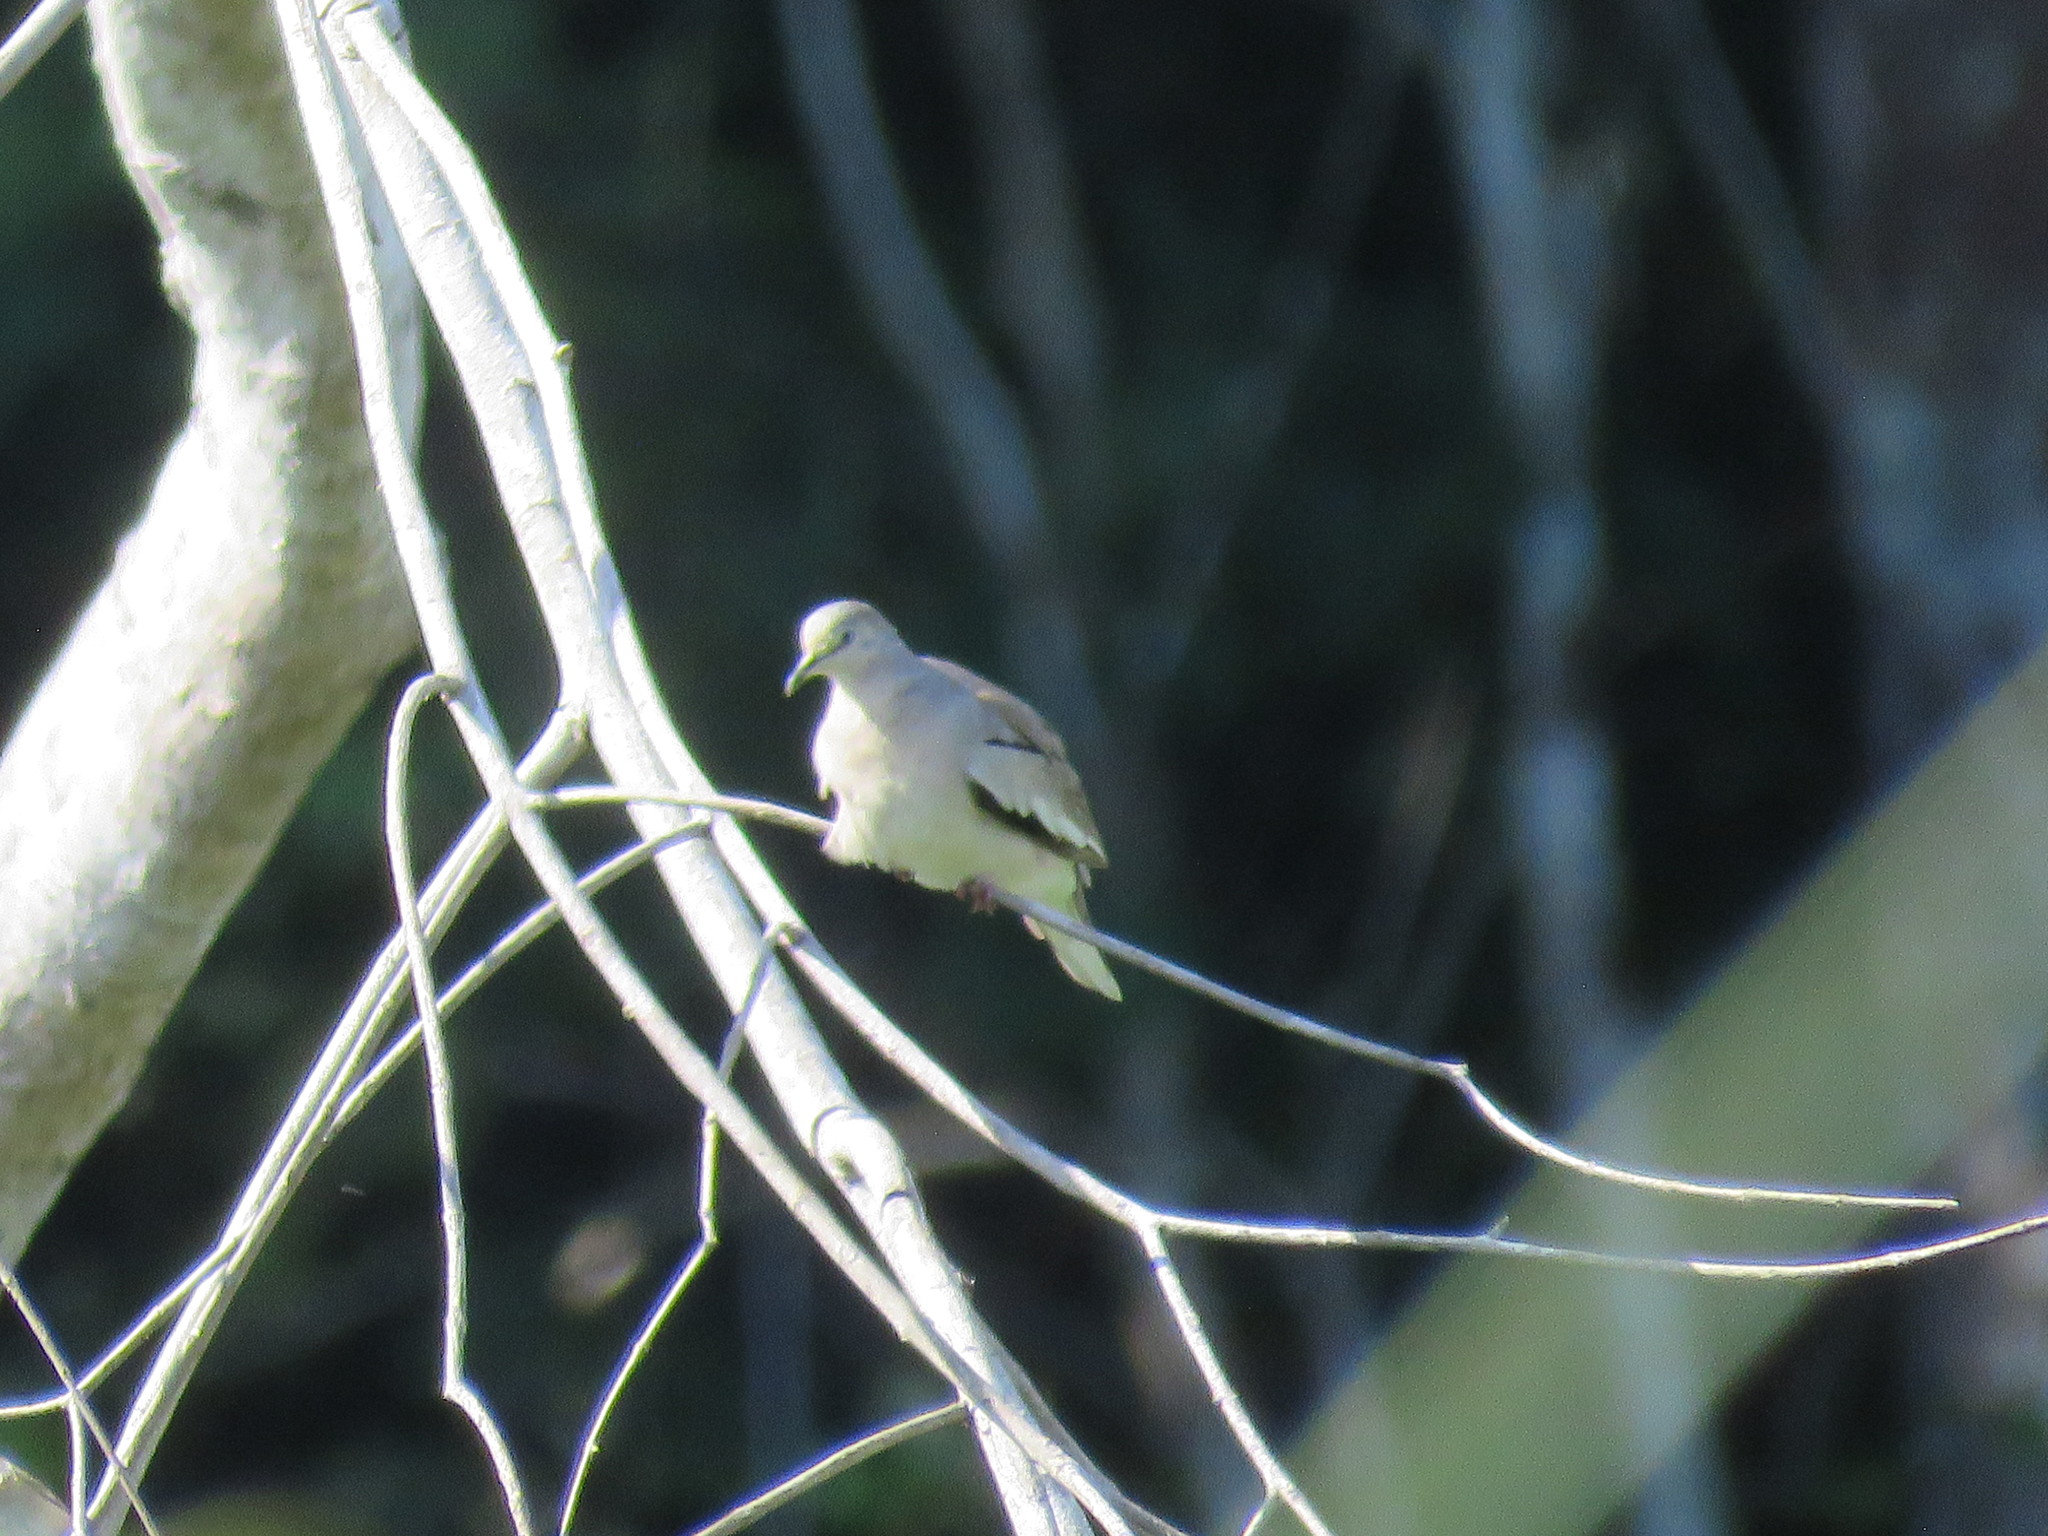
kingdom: Animalia
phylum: Chordata
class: Aves
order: Columbiformes
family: Columbidae
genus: Columbina
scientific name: Columbina picui
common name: Picui ground dove
